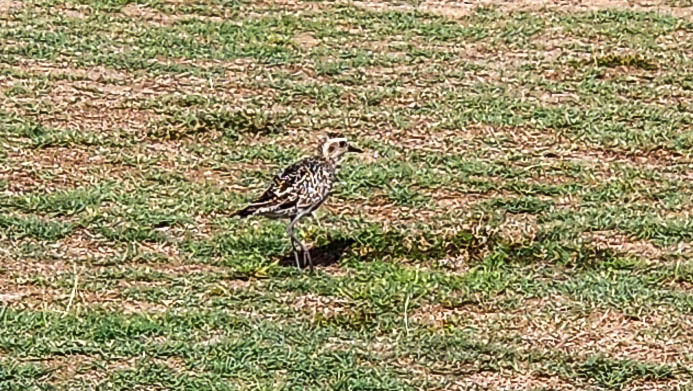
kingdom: Animalia
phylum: Chordata
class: Aves
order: Charadriiformes
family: Charadriidae
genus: Pluvialis
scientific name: Pluvialis fulva
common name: Pacific golden plover
